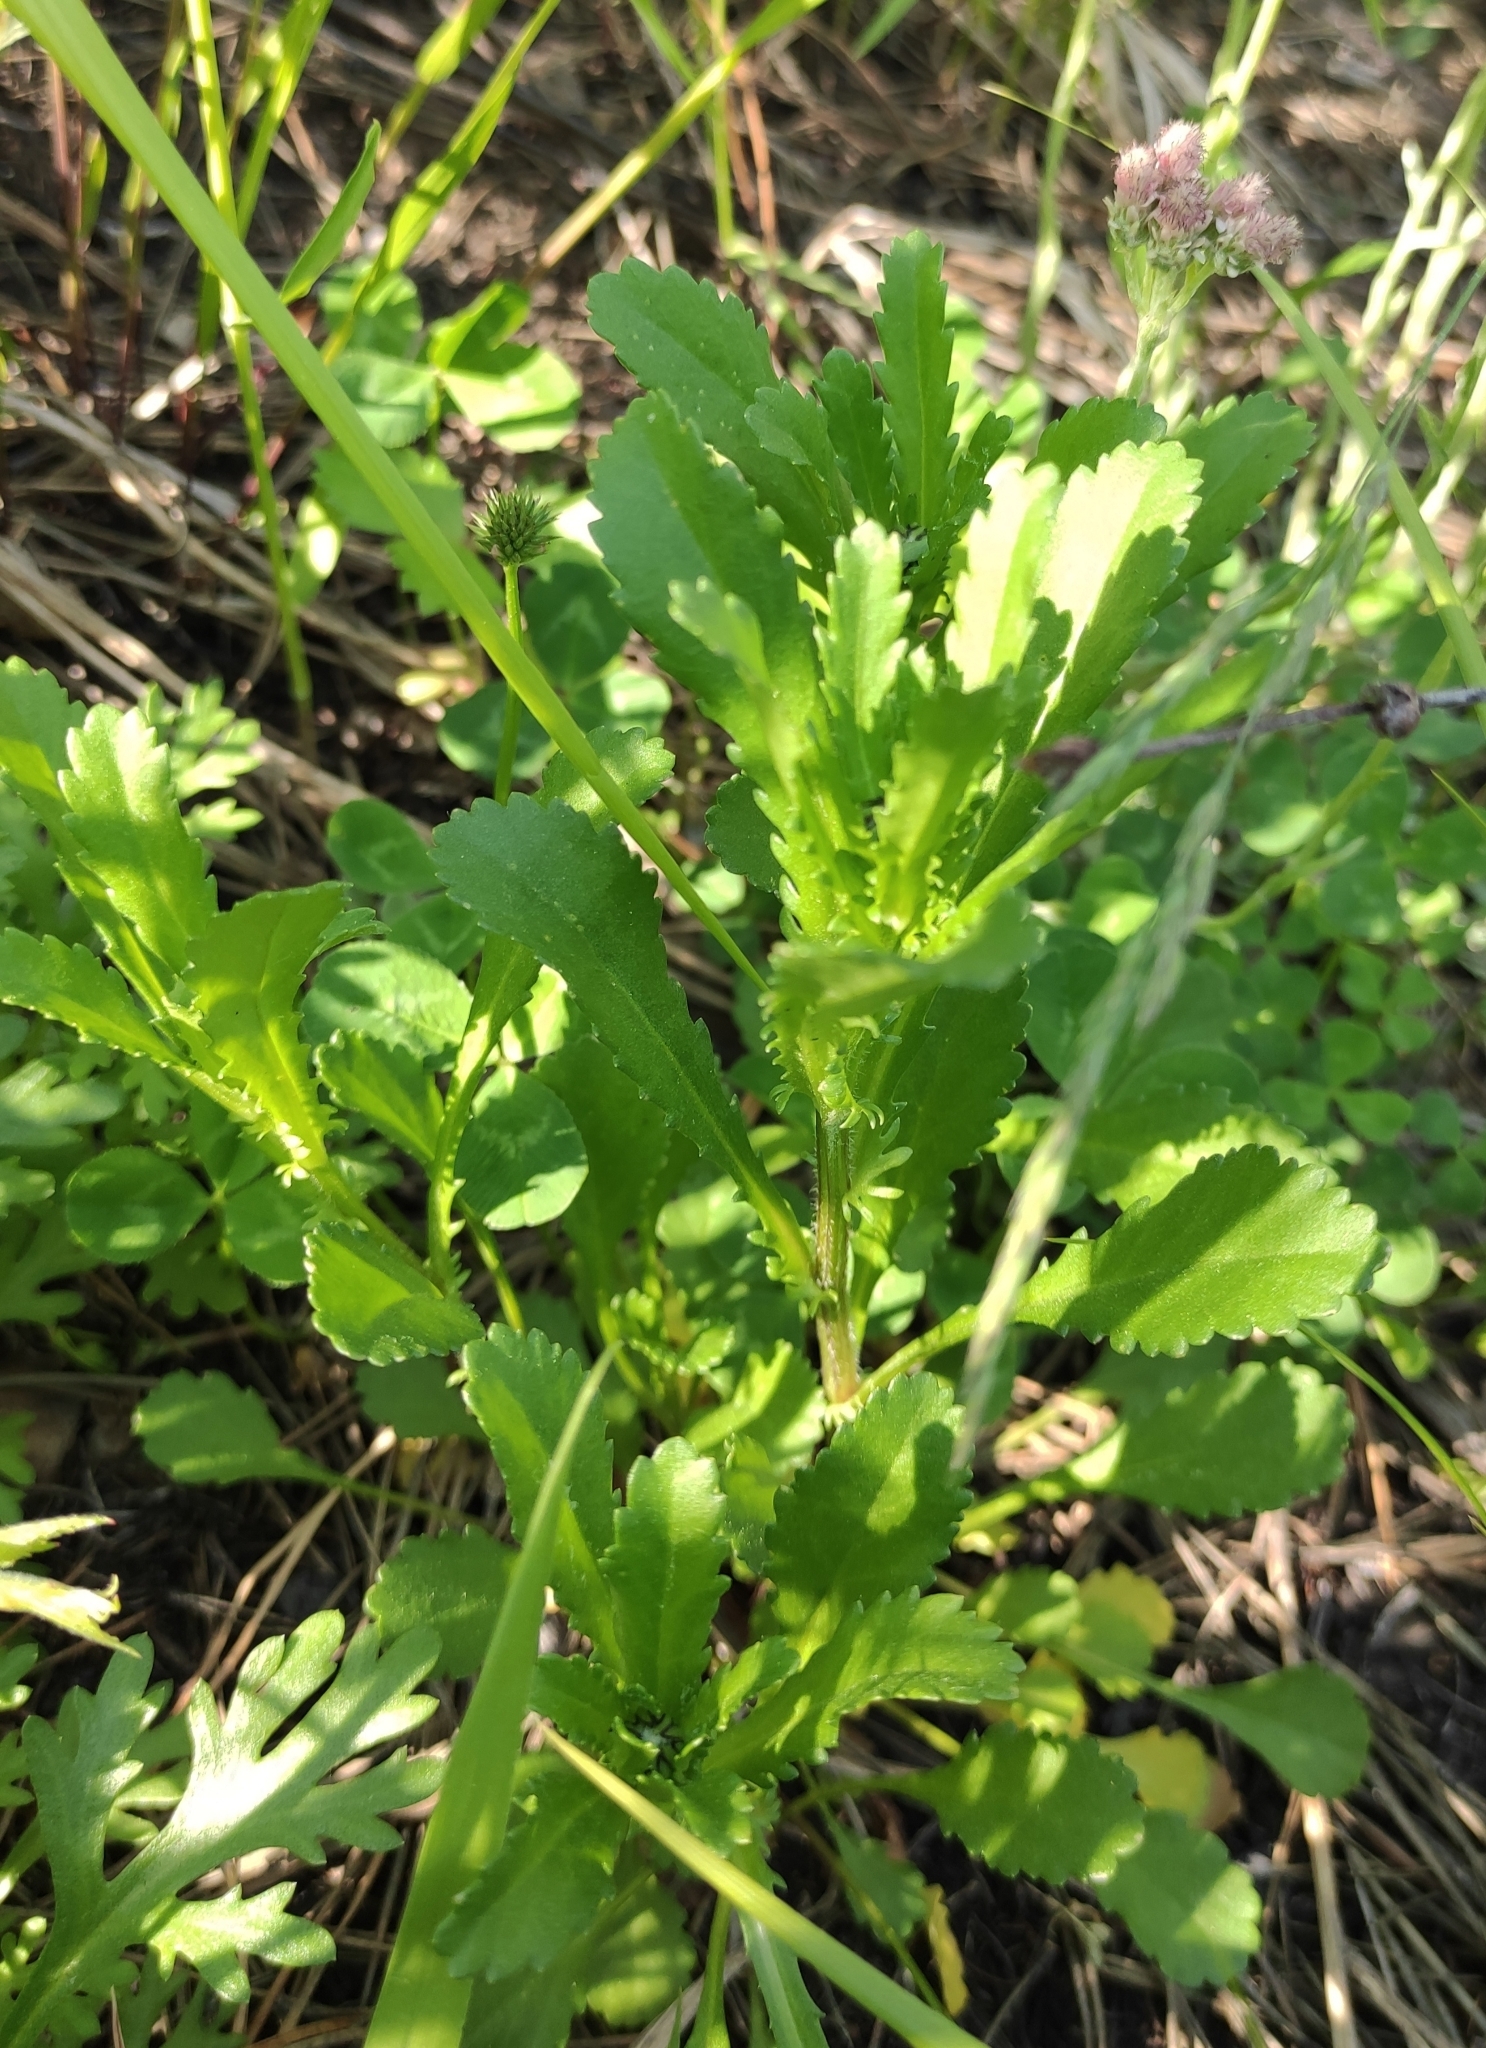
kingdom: Plantae
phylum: Tracheophyta
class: Magnoliopsida
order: Asterales
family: Asteraceae
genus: Leucanthemum
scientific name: Leucanthemum ircutianum
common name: Daisy
